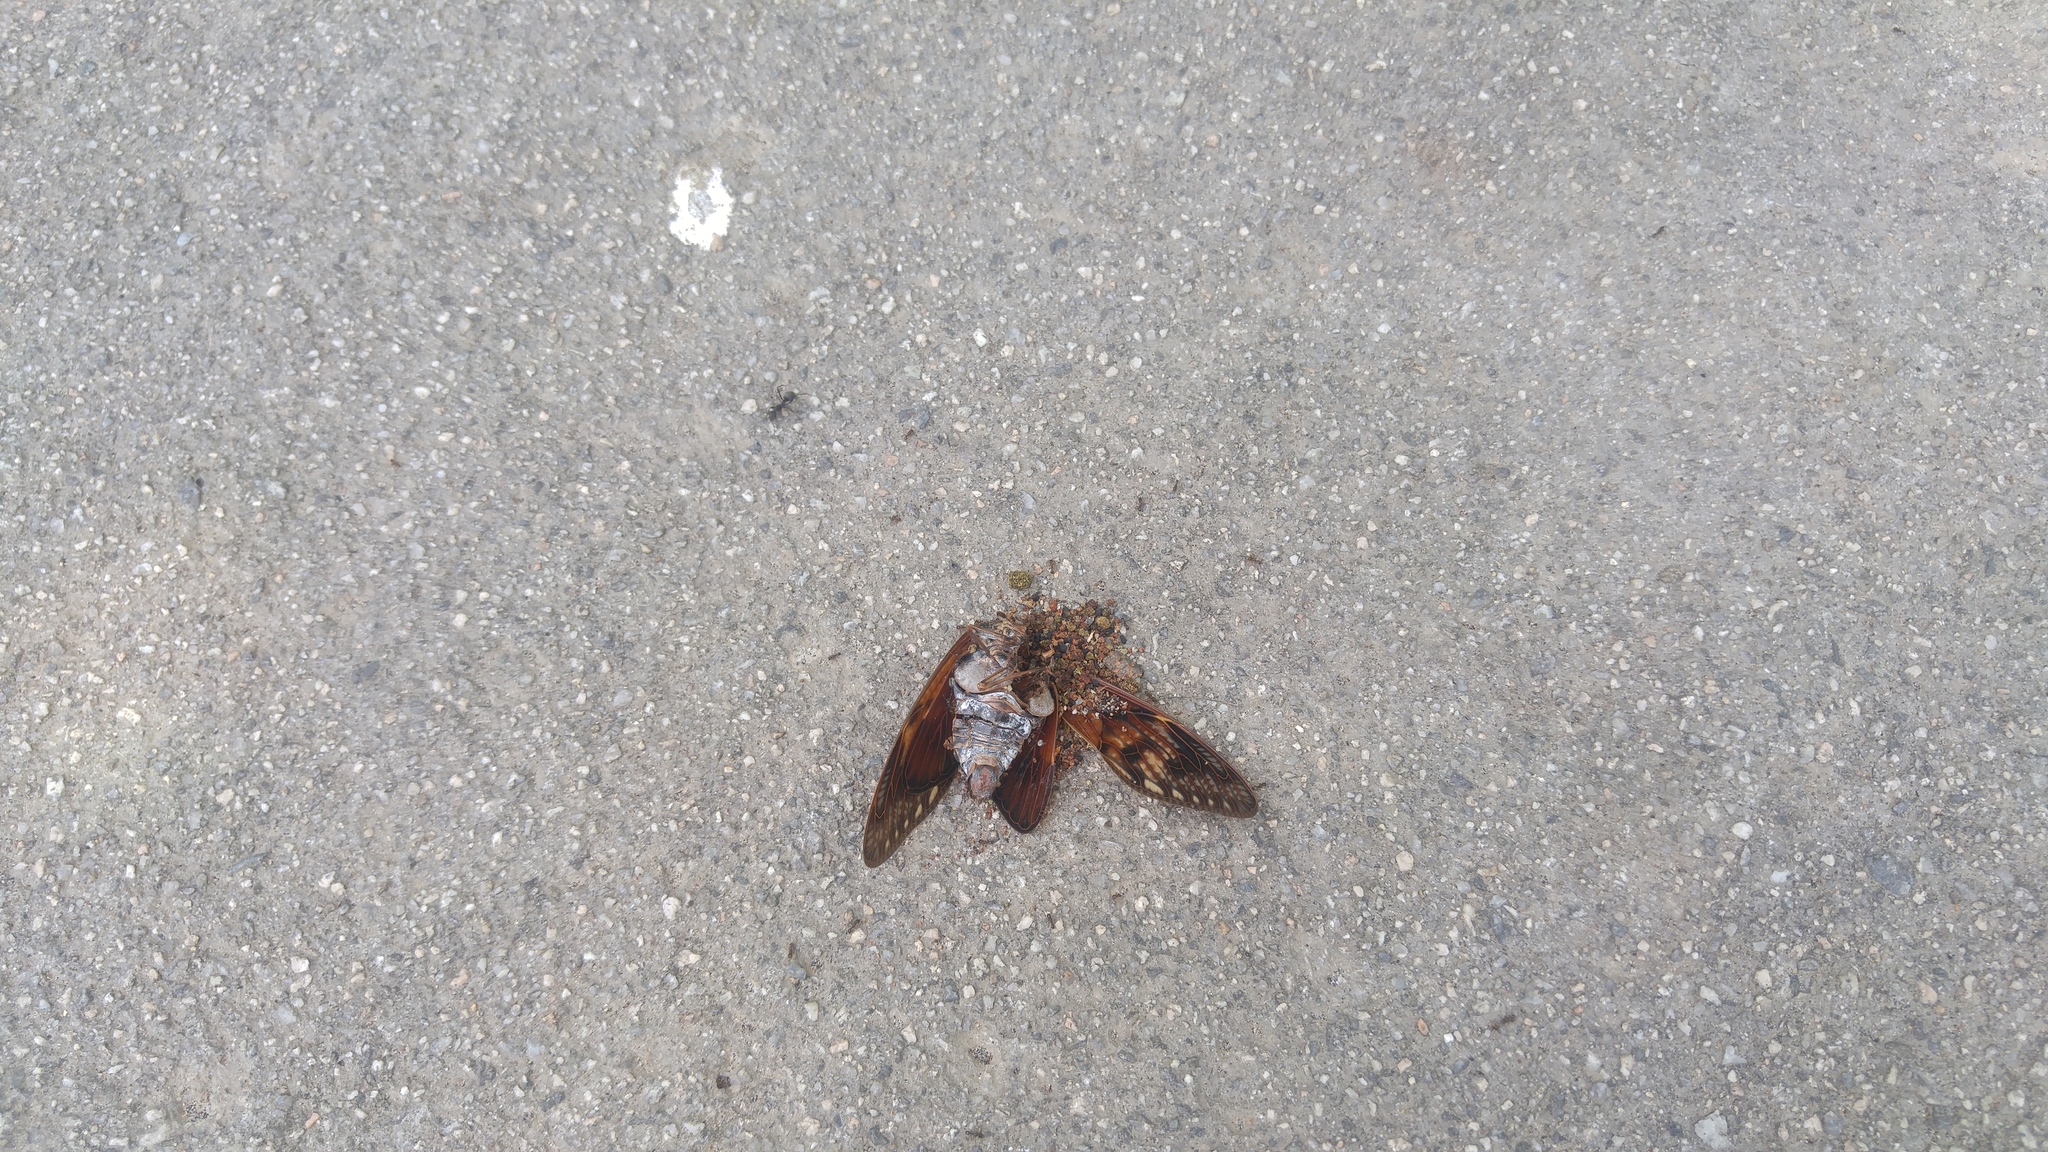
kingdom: Animalia
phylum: Arthropoda
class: Insecta
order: Hemiptera
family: Cicadidae
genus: Graptopsaltria
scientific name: Graptopsaltria nigrofuscata
